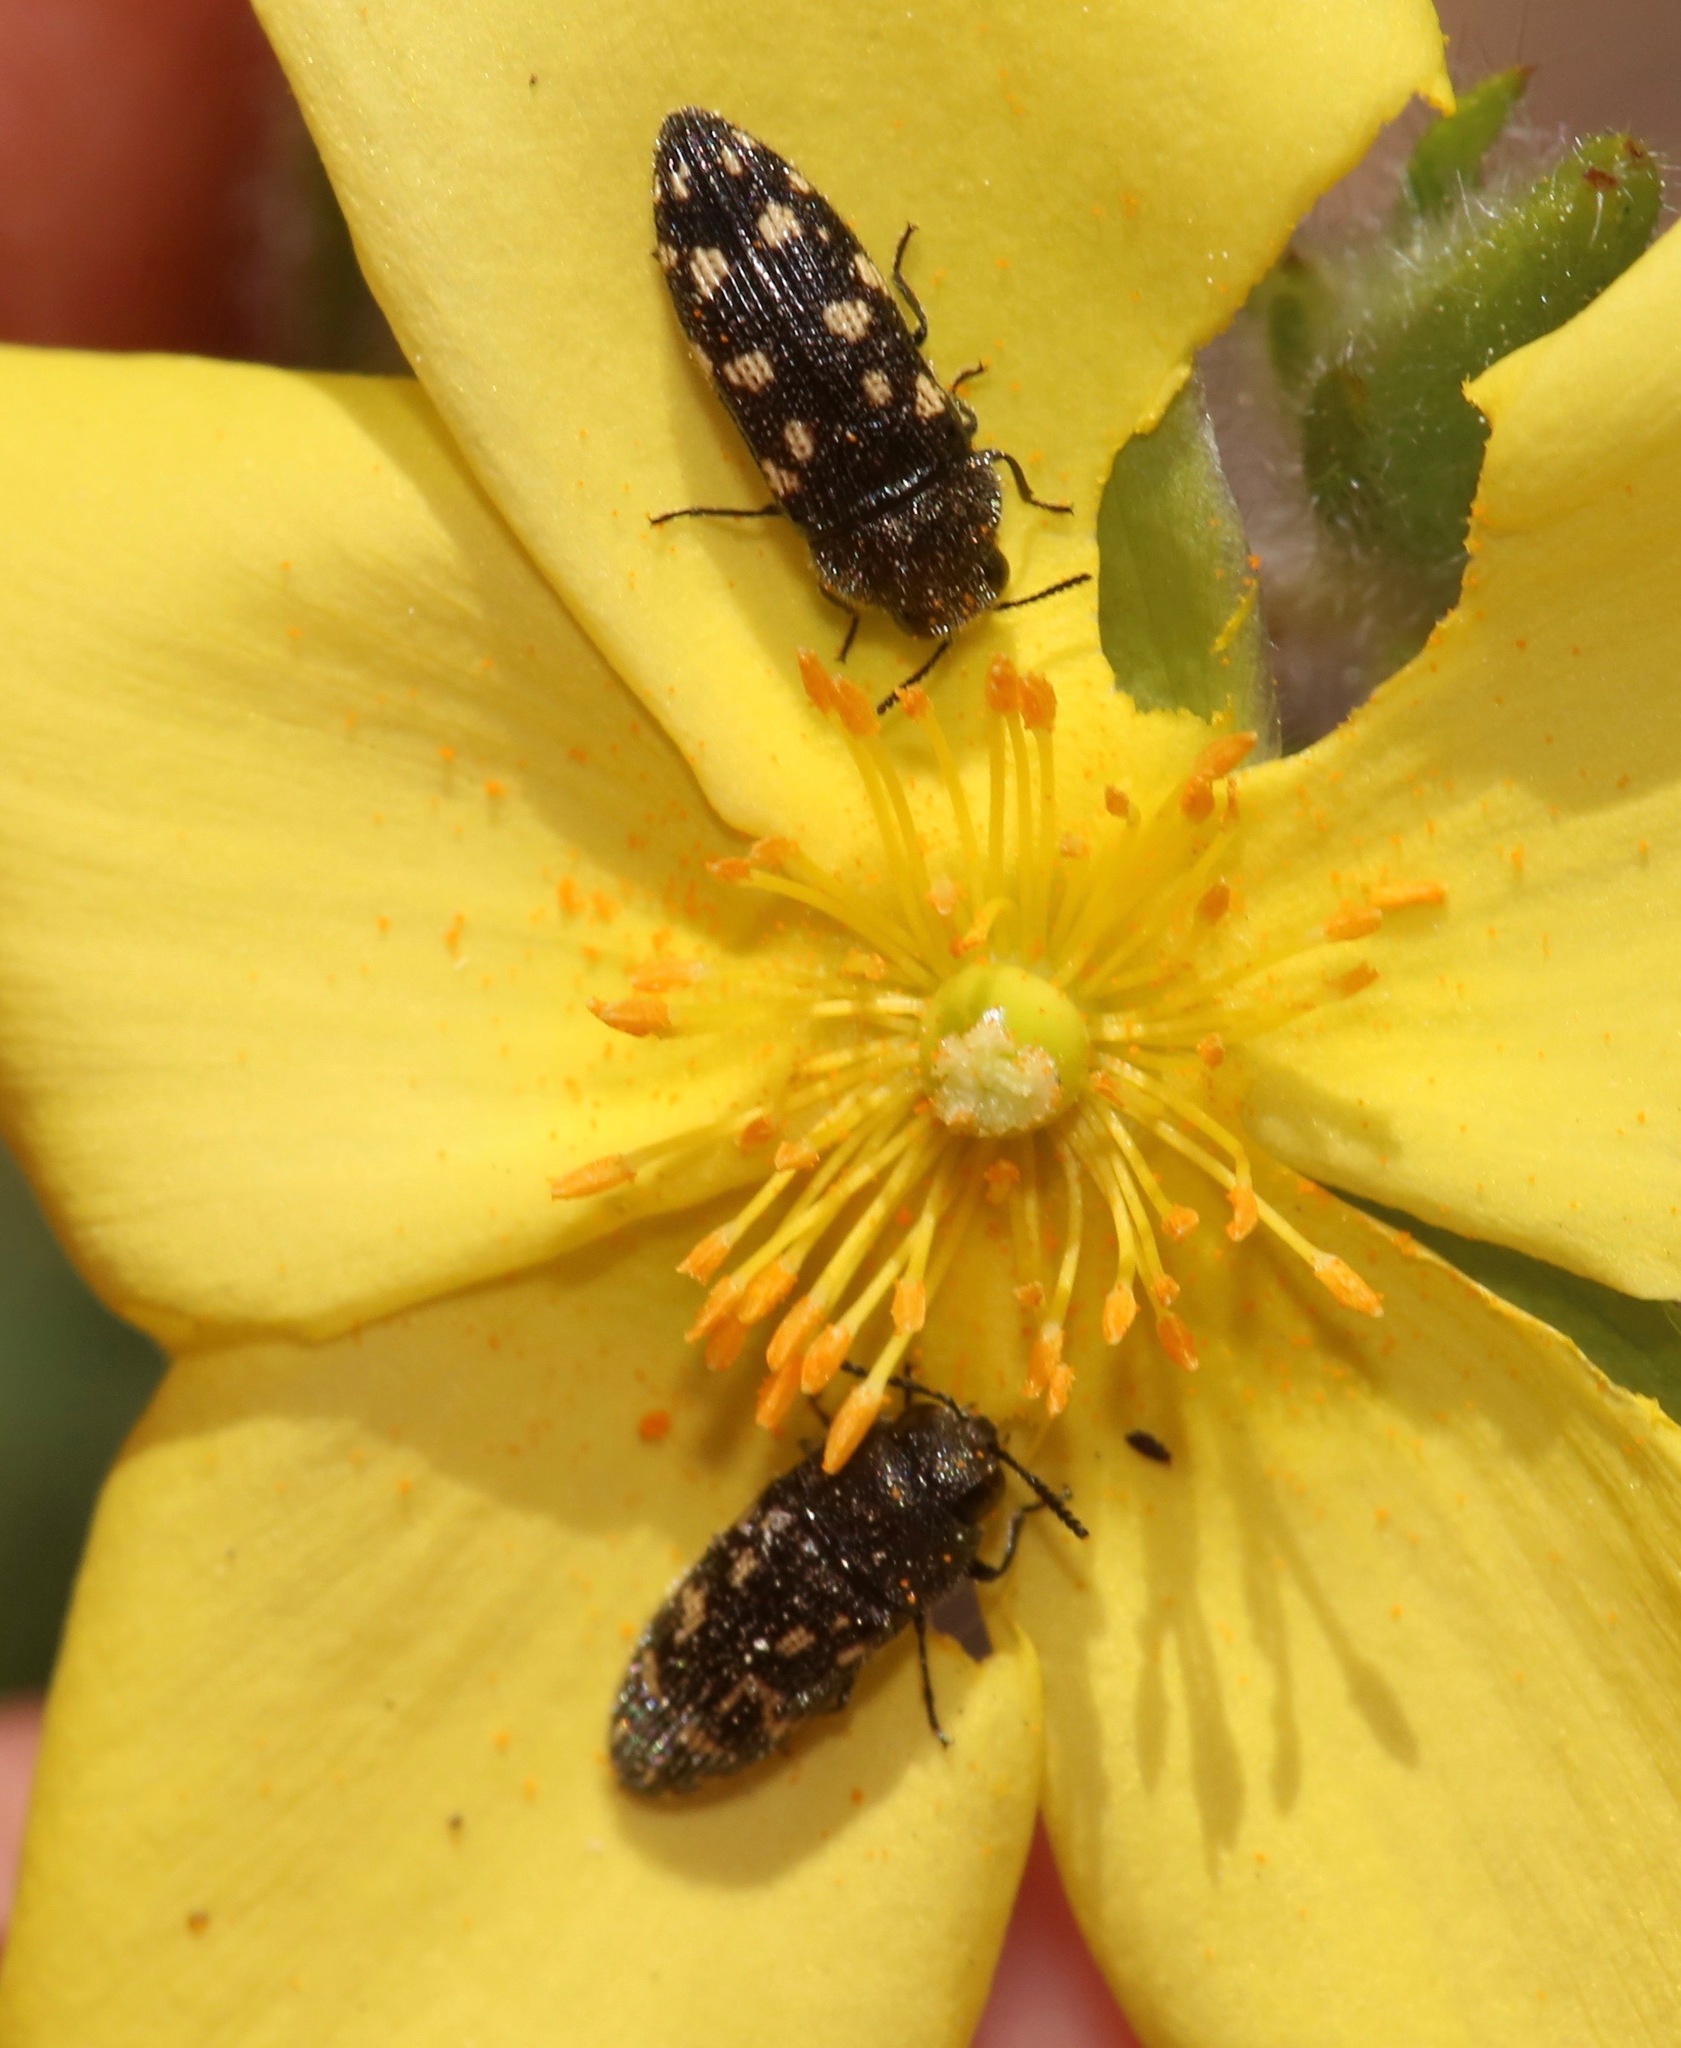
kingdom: Animalia
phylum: Arthropoda
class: Insecta
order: Coleoptera
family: Buprestidae
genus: Acmaeodera
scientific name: Acmaeodera tubulus
